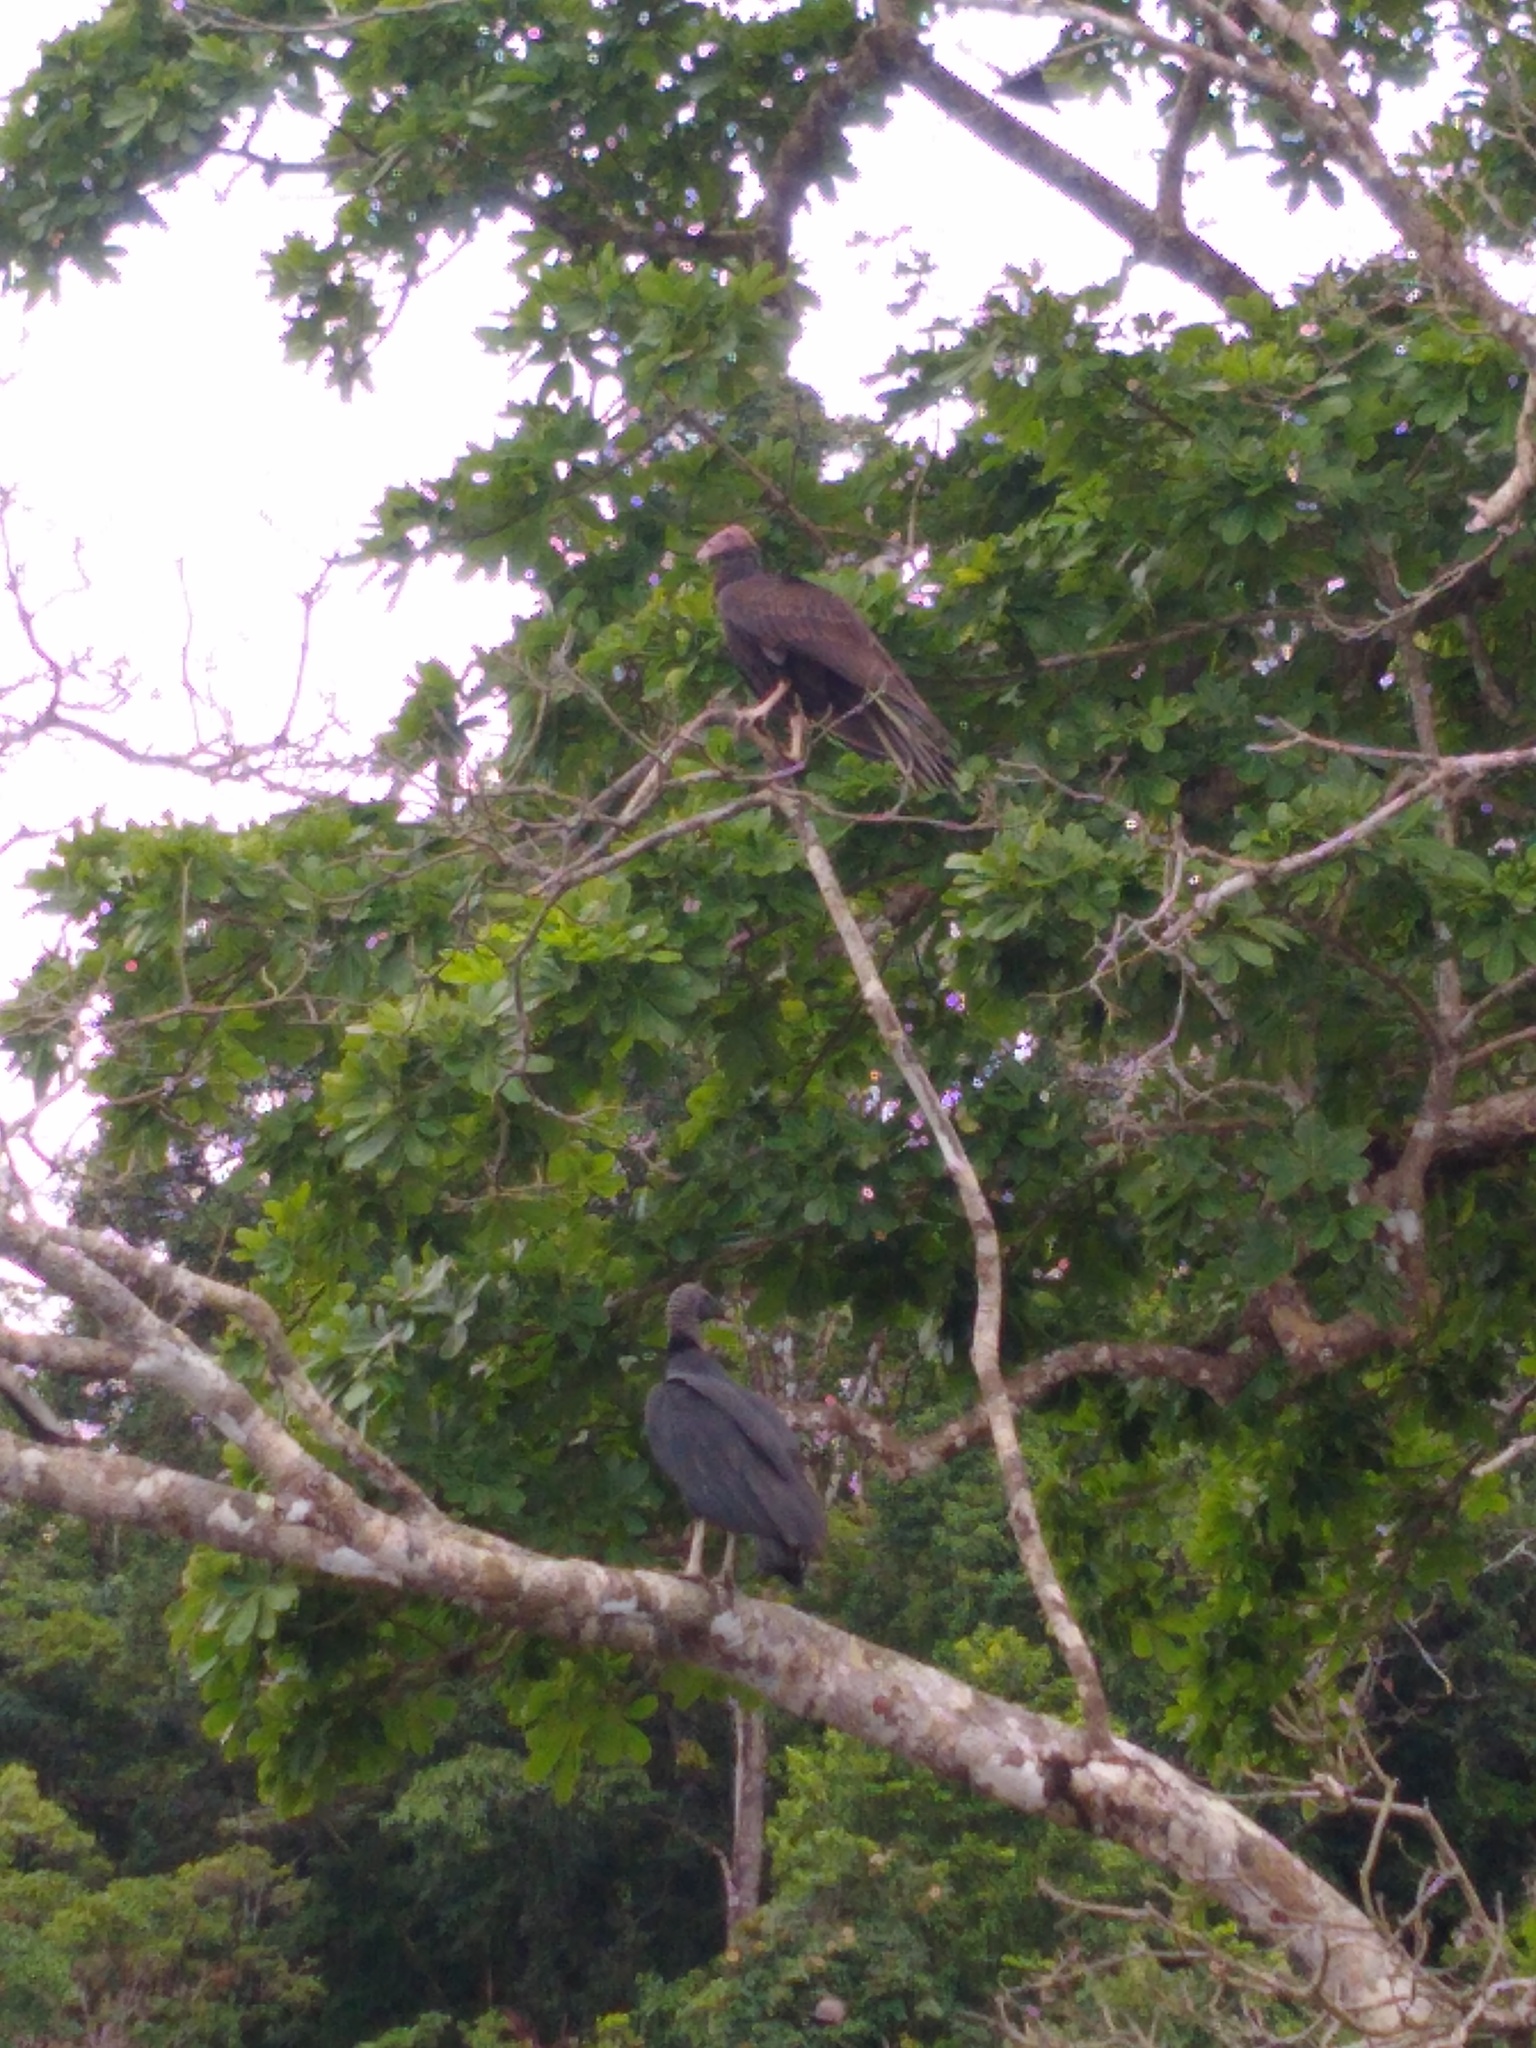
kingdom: Animalia
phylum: Chordata
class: Aves
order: Accipitriformes
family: Cathartidae
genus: Coragyps
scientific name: Coragyps atratus
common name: Black vulture
